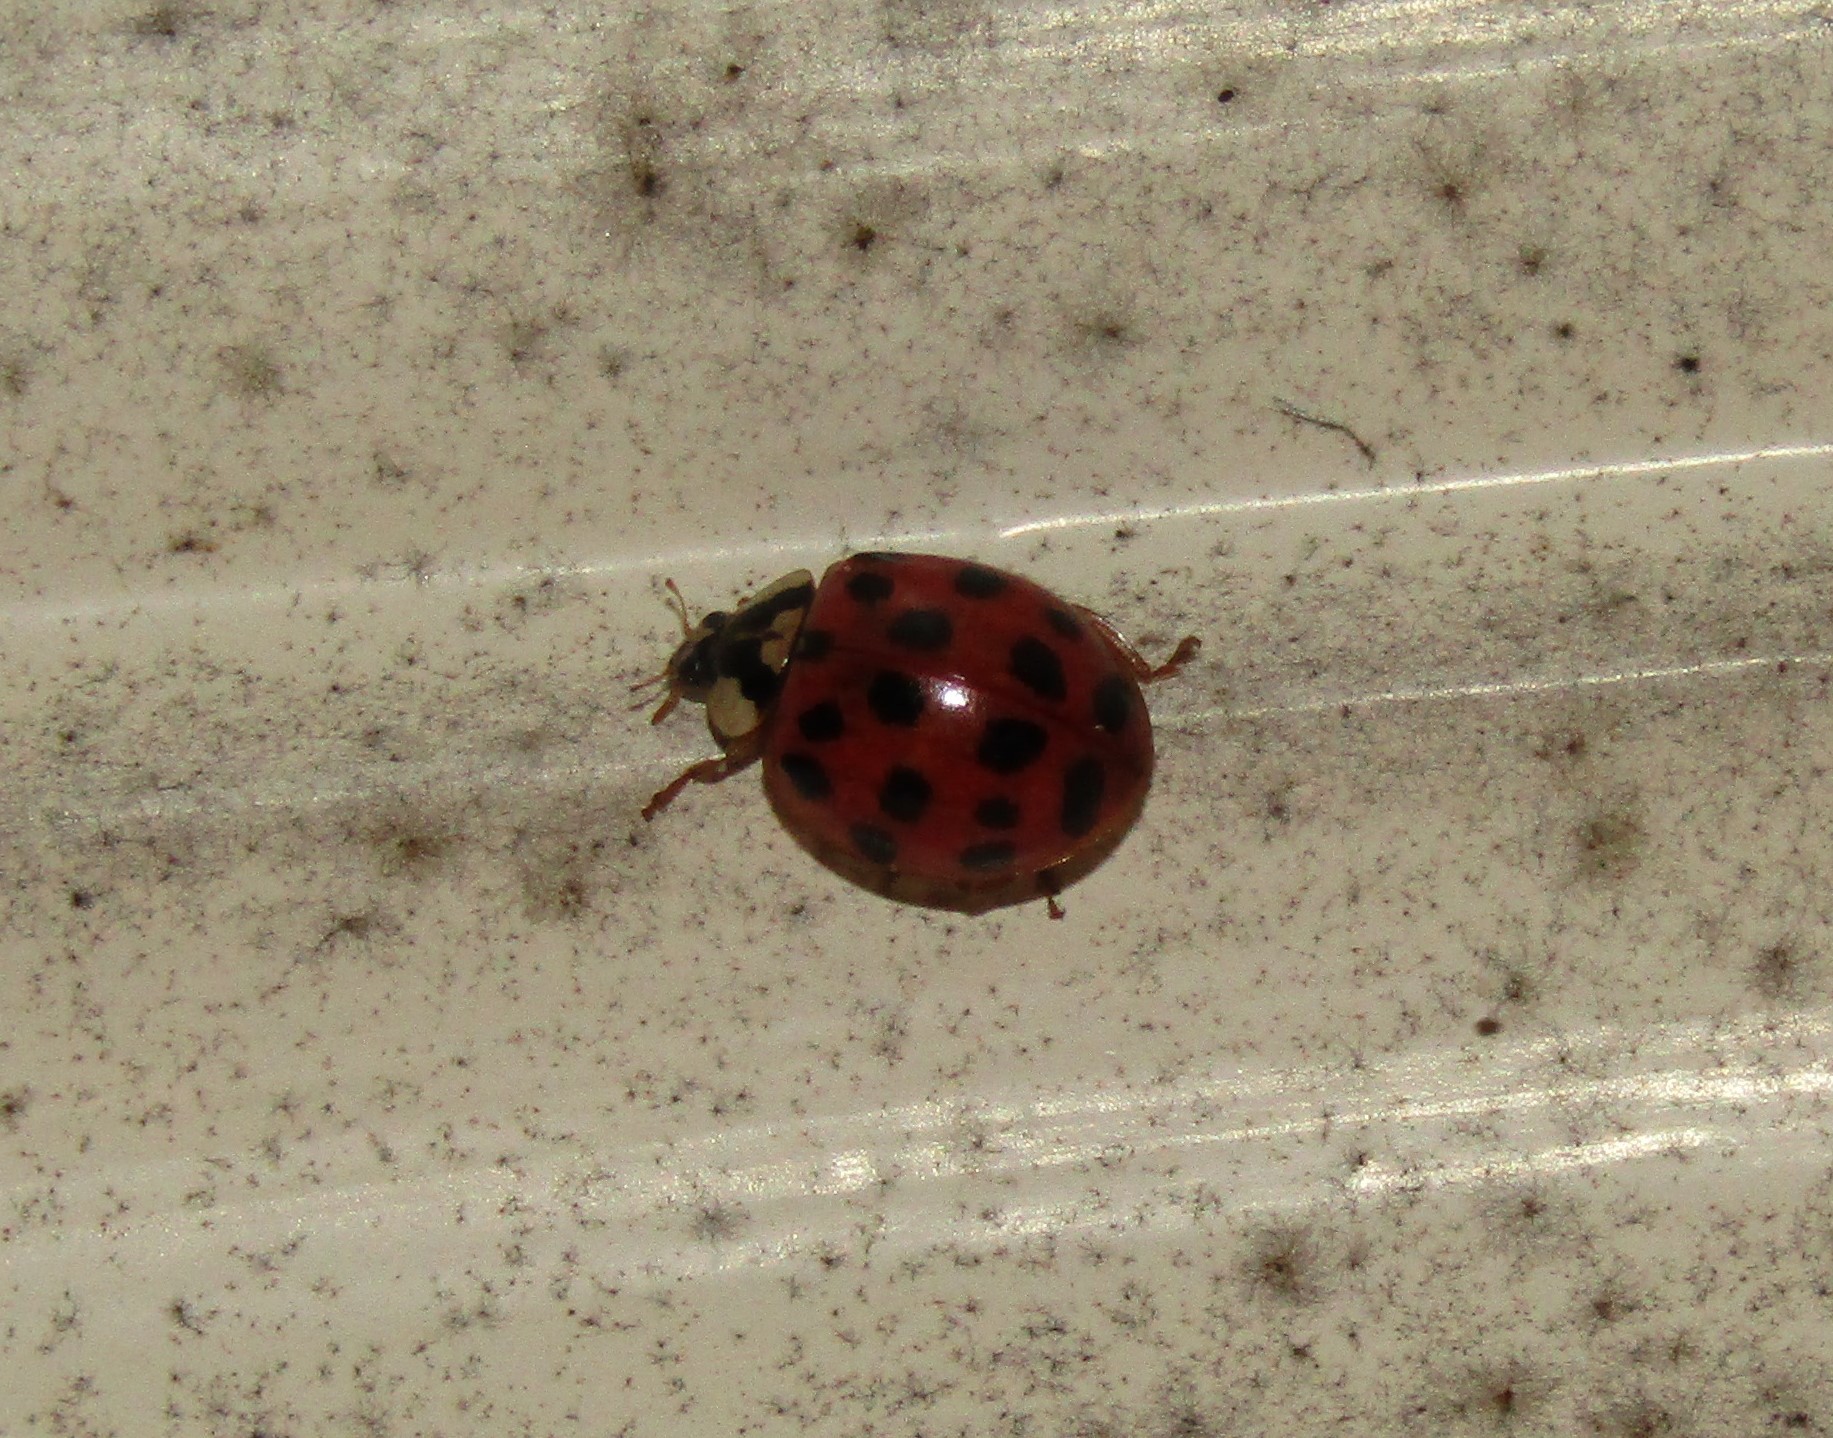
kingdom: Animalia
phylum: Arthropoda
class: Insecta
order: Coleoptera
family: Coccinellidae
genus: Harmonia
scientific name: Harmonia axyridis
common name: Harlequin ladybird
